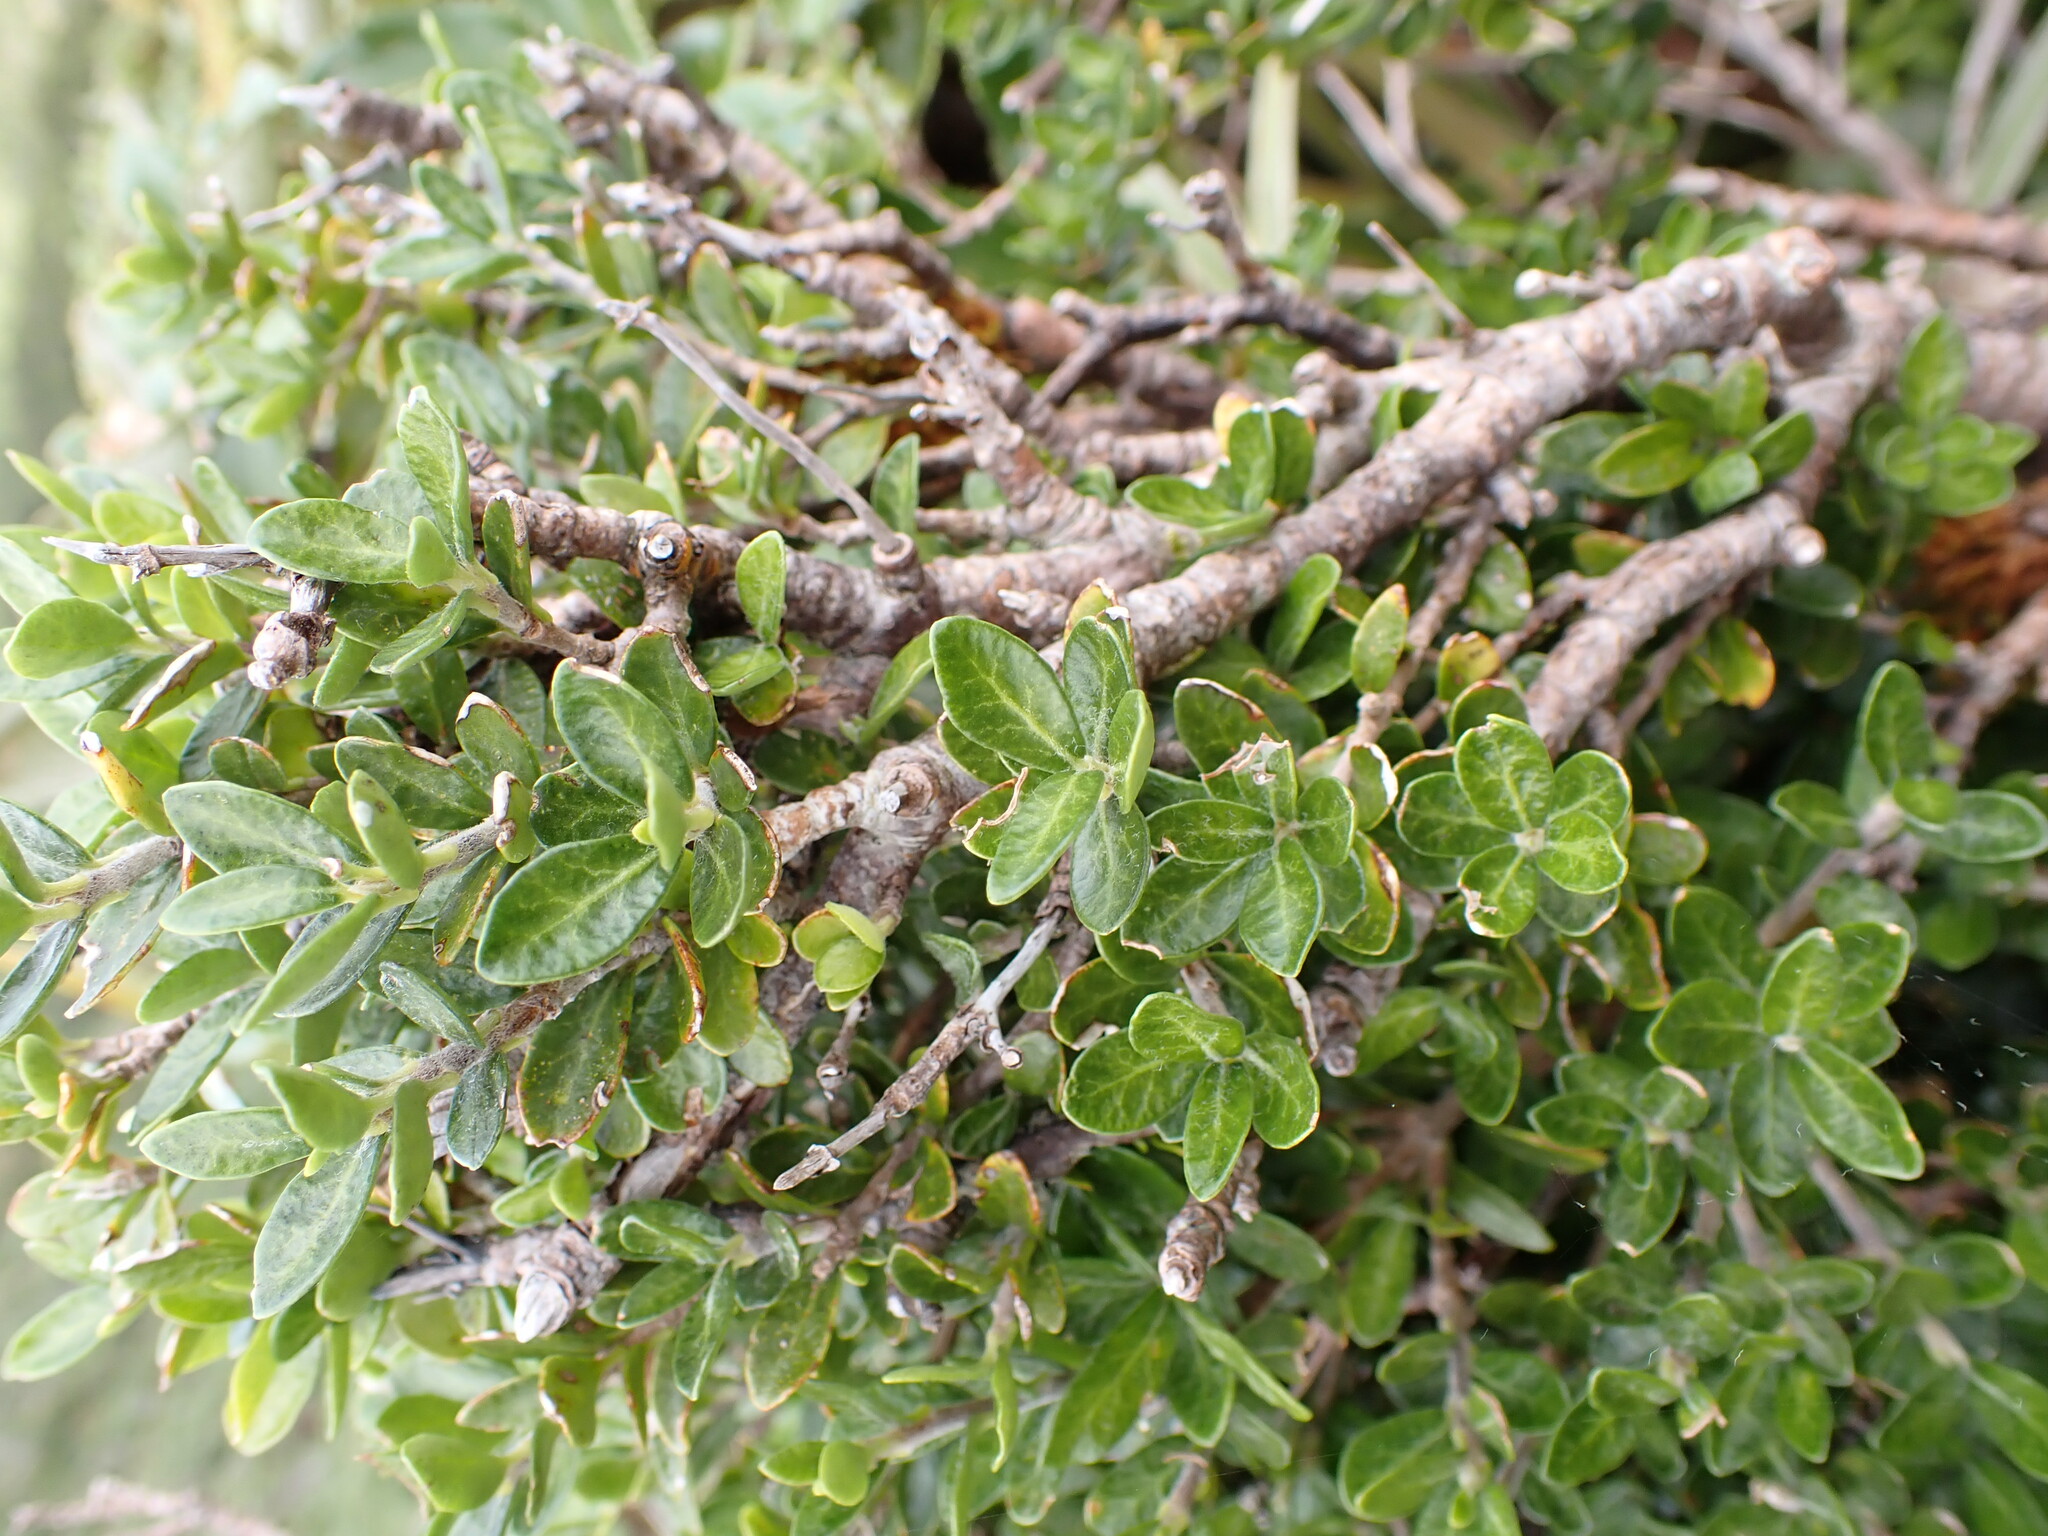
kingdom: Plantae
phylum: Tracheophyta
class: Magnoliopsida
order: Apiales
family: Pittosporaceae
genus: Pittosporum
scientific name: Pittosporum rigidum
